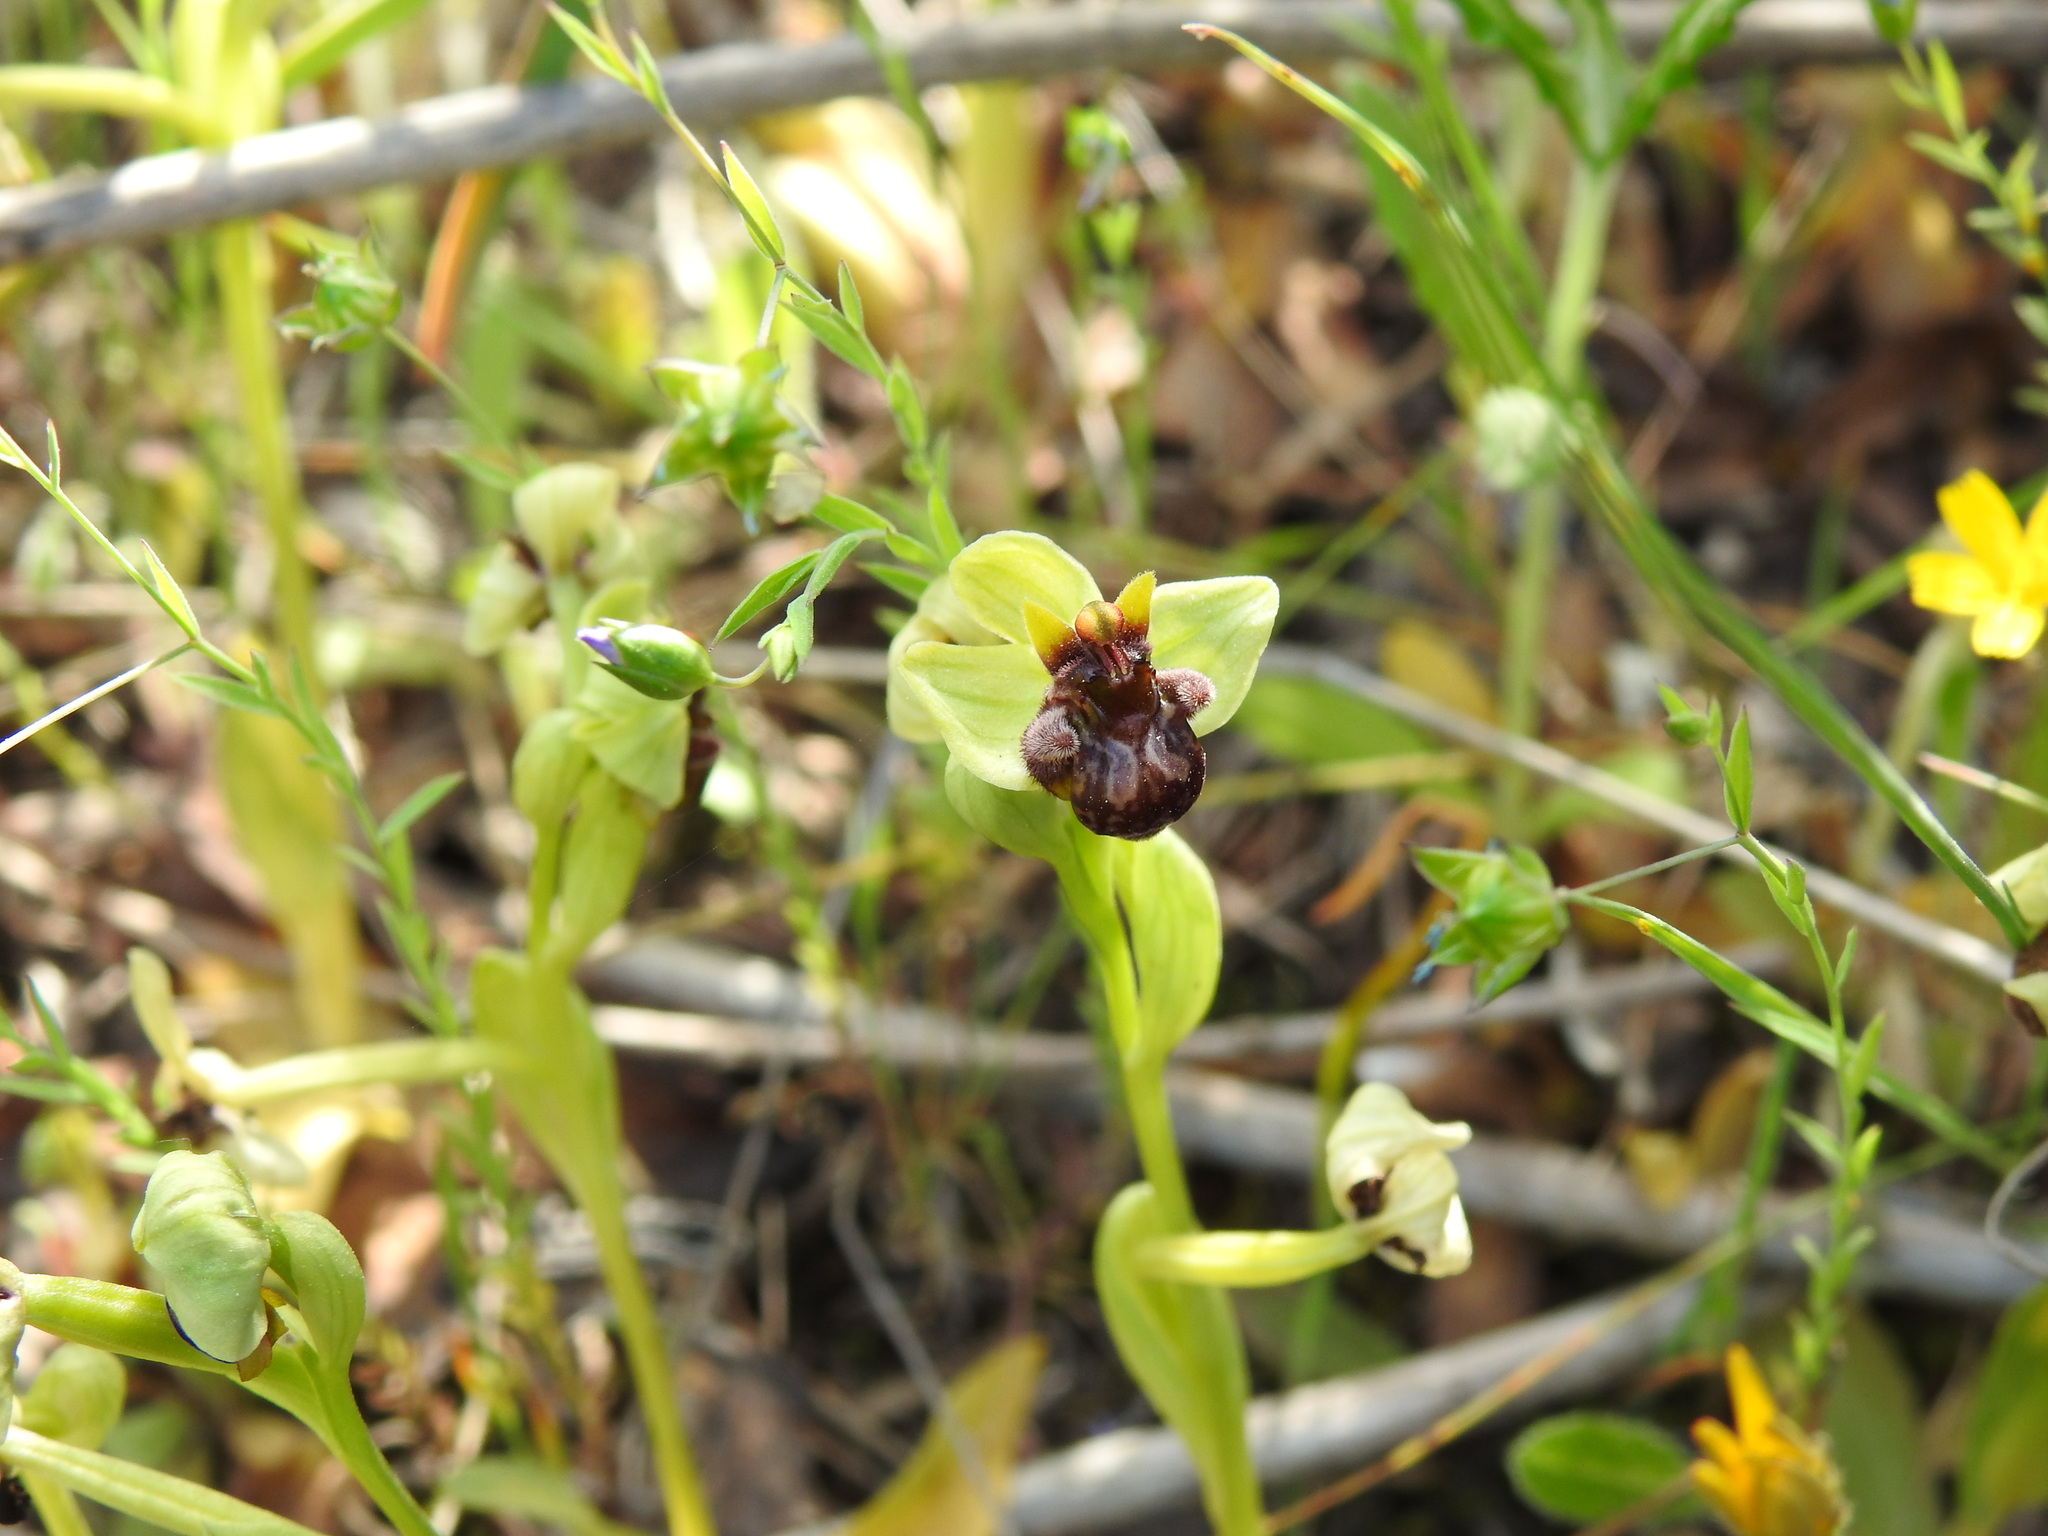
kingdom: Plantae
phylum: Tracheophyta
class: Liliopsida
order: Asparagales
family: Orchidaceae
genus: Ophrys
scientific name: Ophrys bombyliflora
